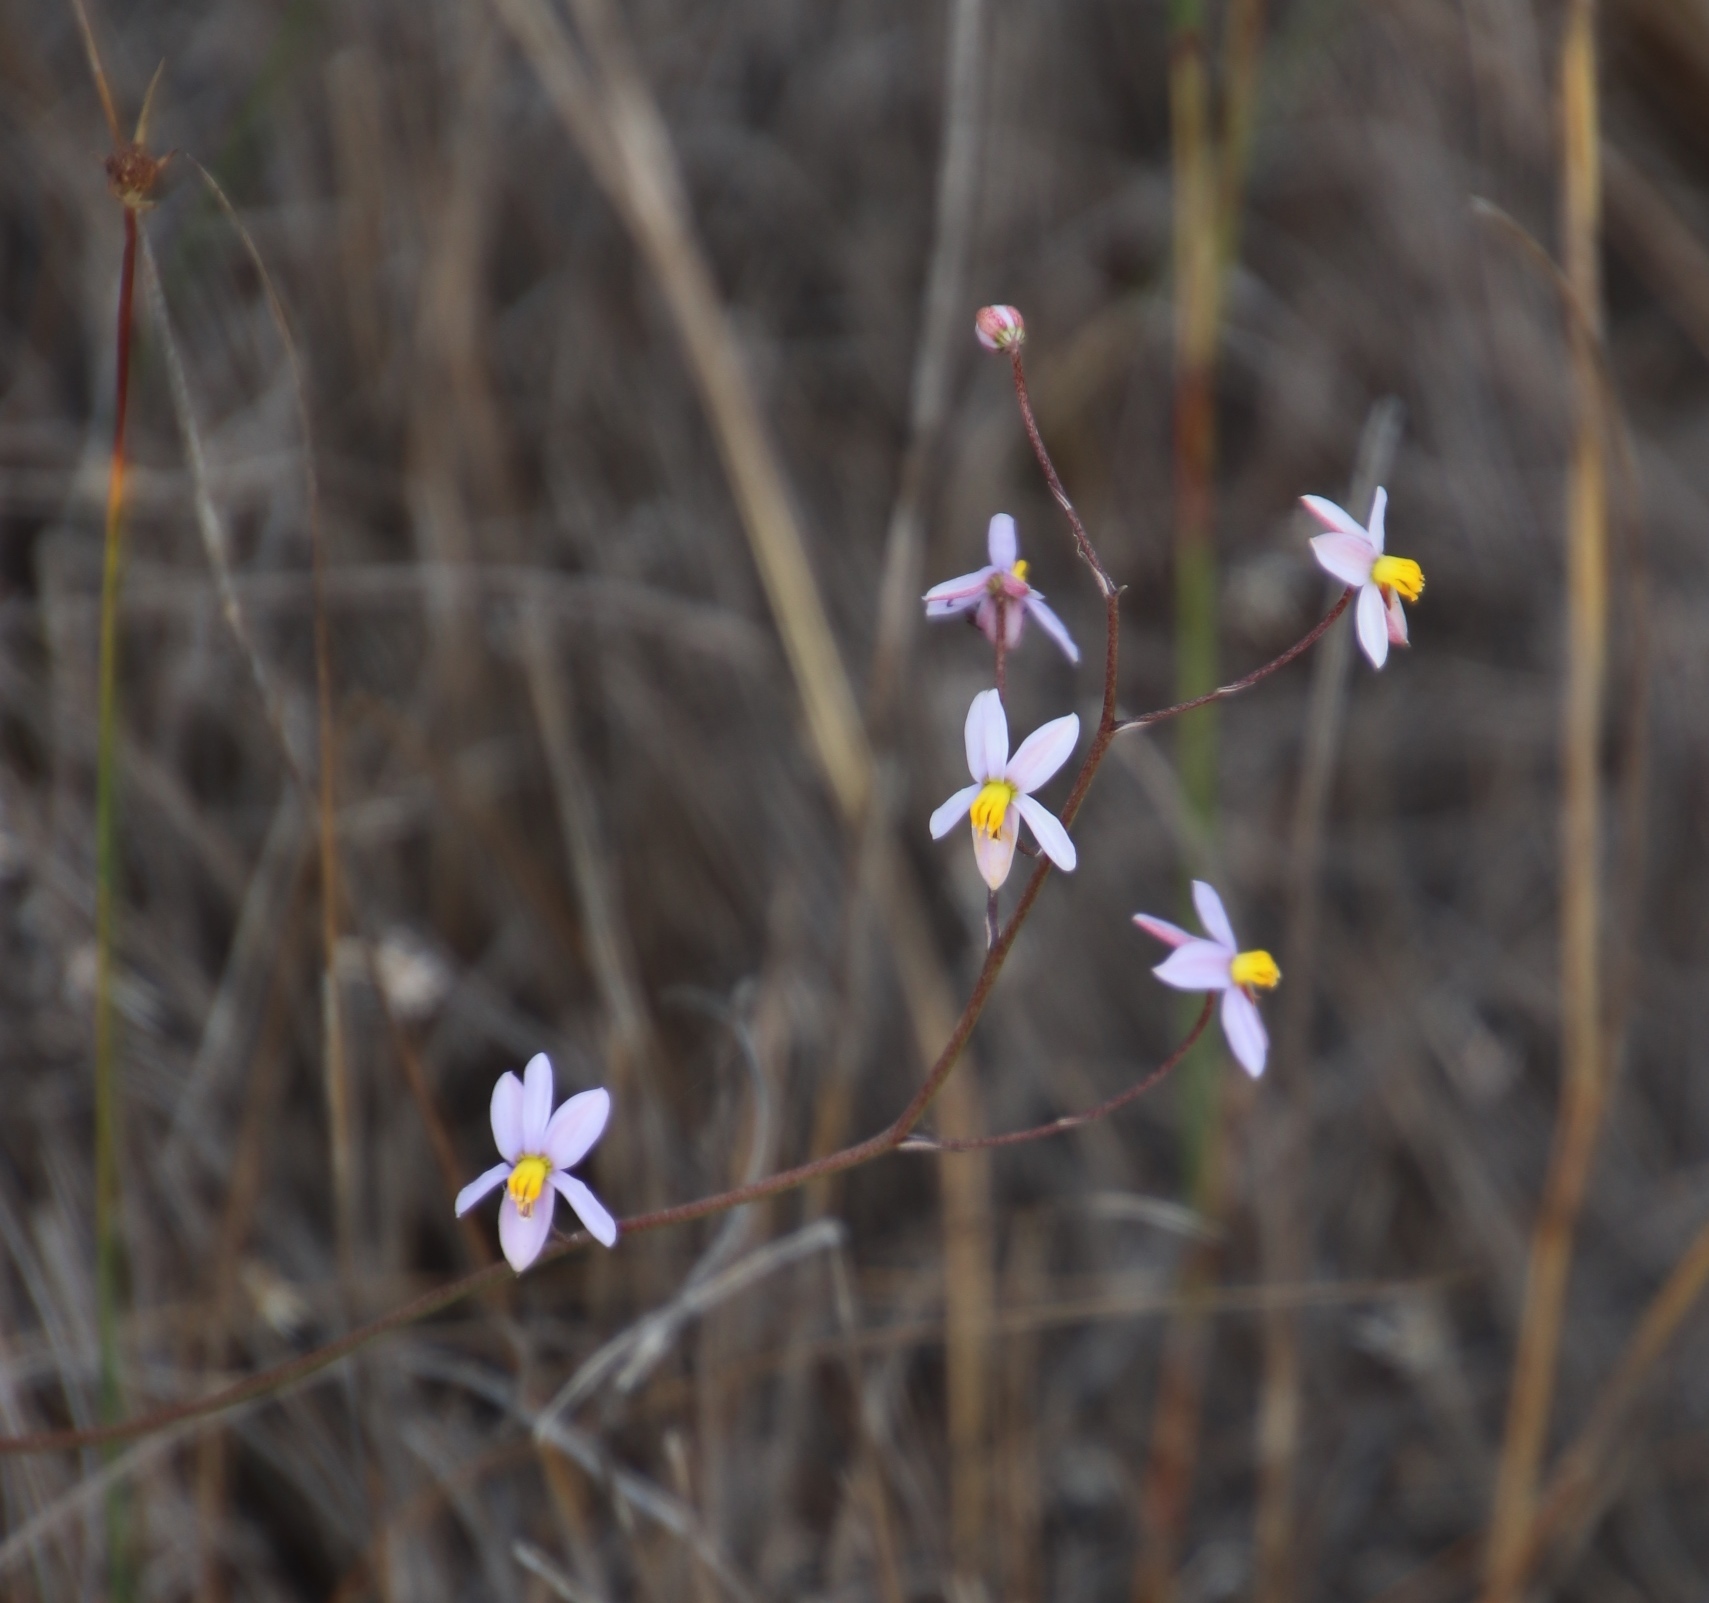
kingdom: Plantae
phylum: Tracheophyta
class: Liliopsida
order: Asparagales
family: Tecophilaeaceae
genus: Cyanella
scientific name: Cyanella hyacinthoides
